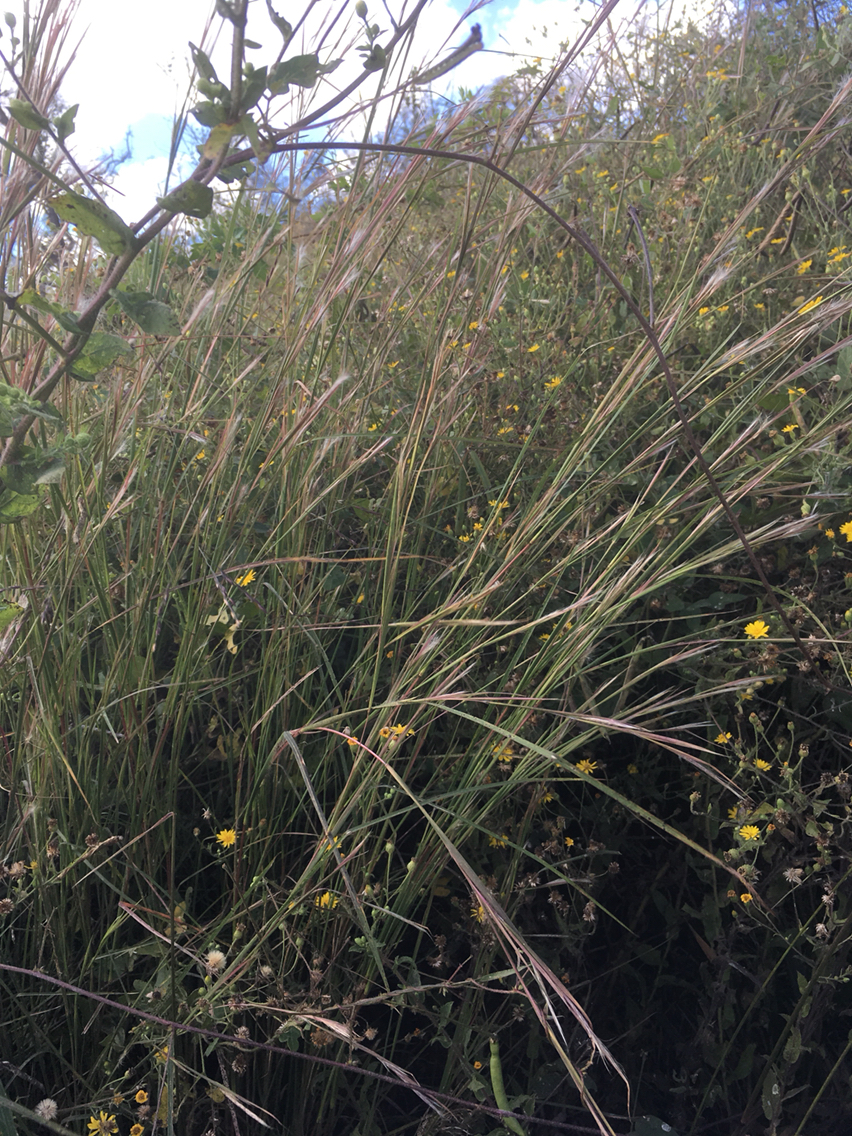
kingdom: Plantae
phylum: Tracheophyta
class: Liliopsida
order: Poales
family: Poaceae
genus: Andropogon
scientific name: Andropogon ternarius
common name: Split bluestem
